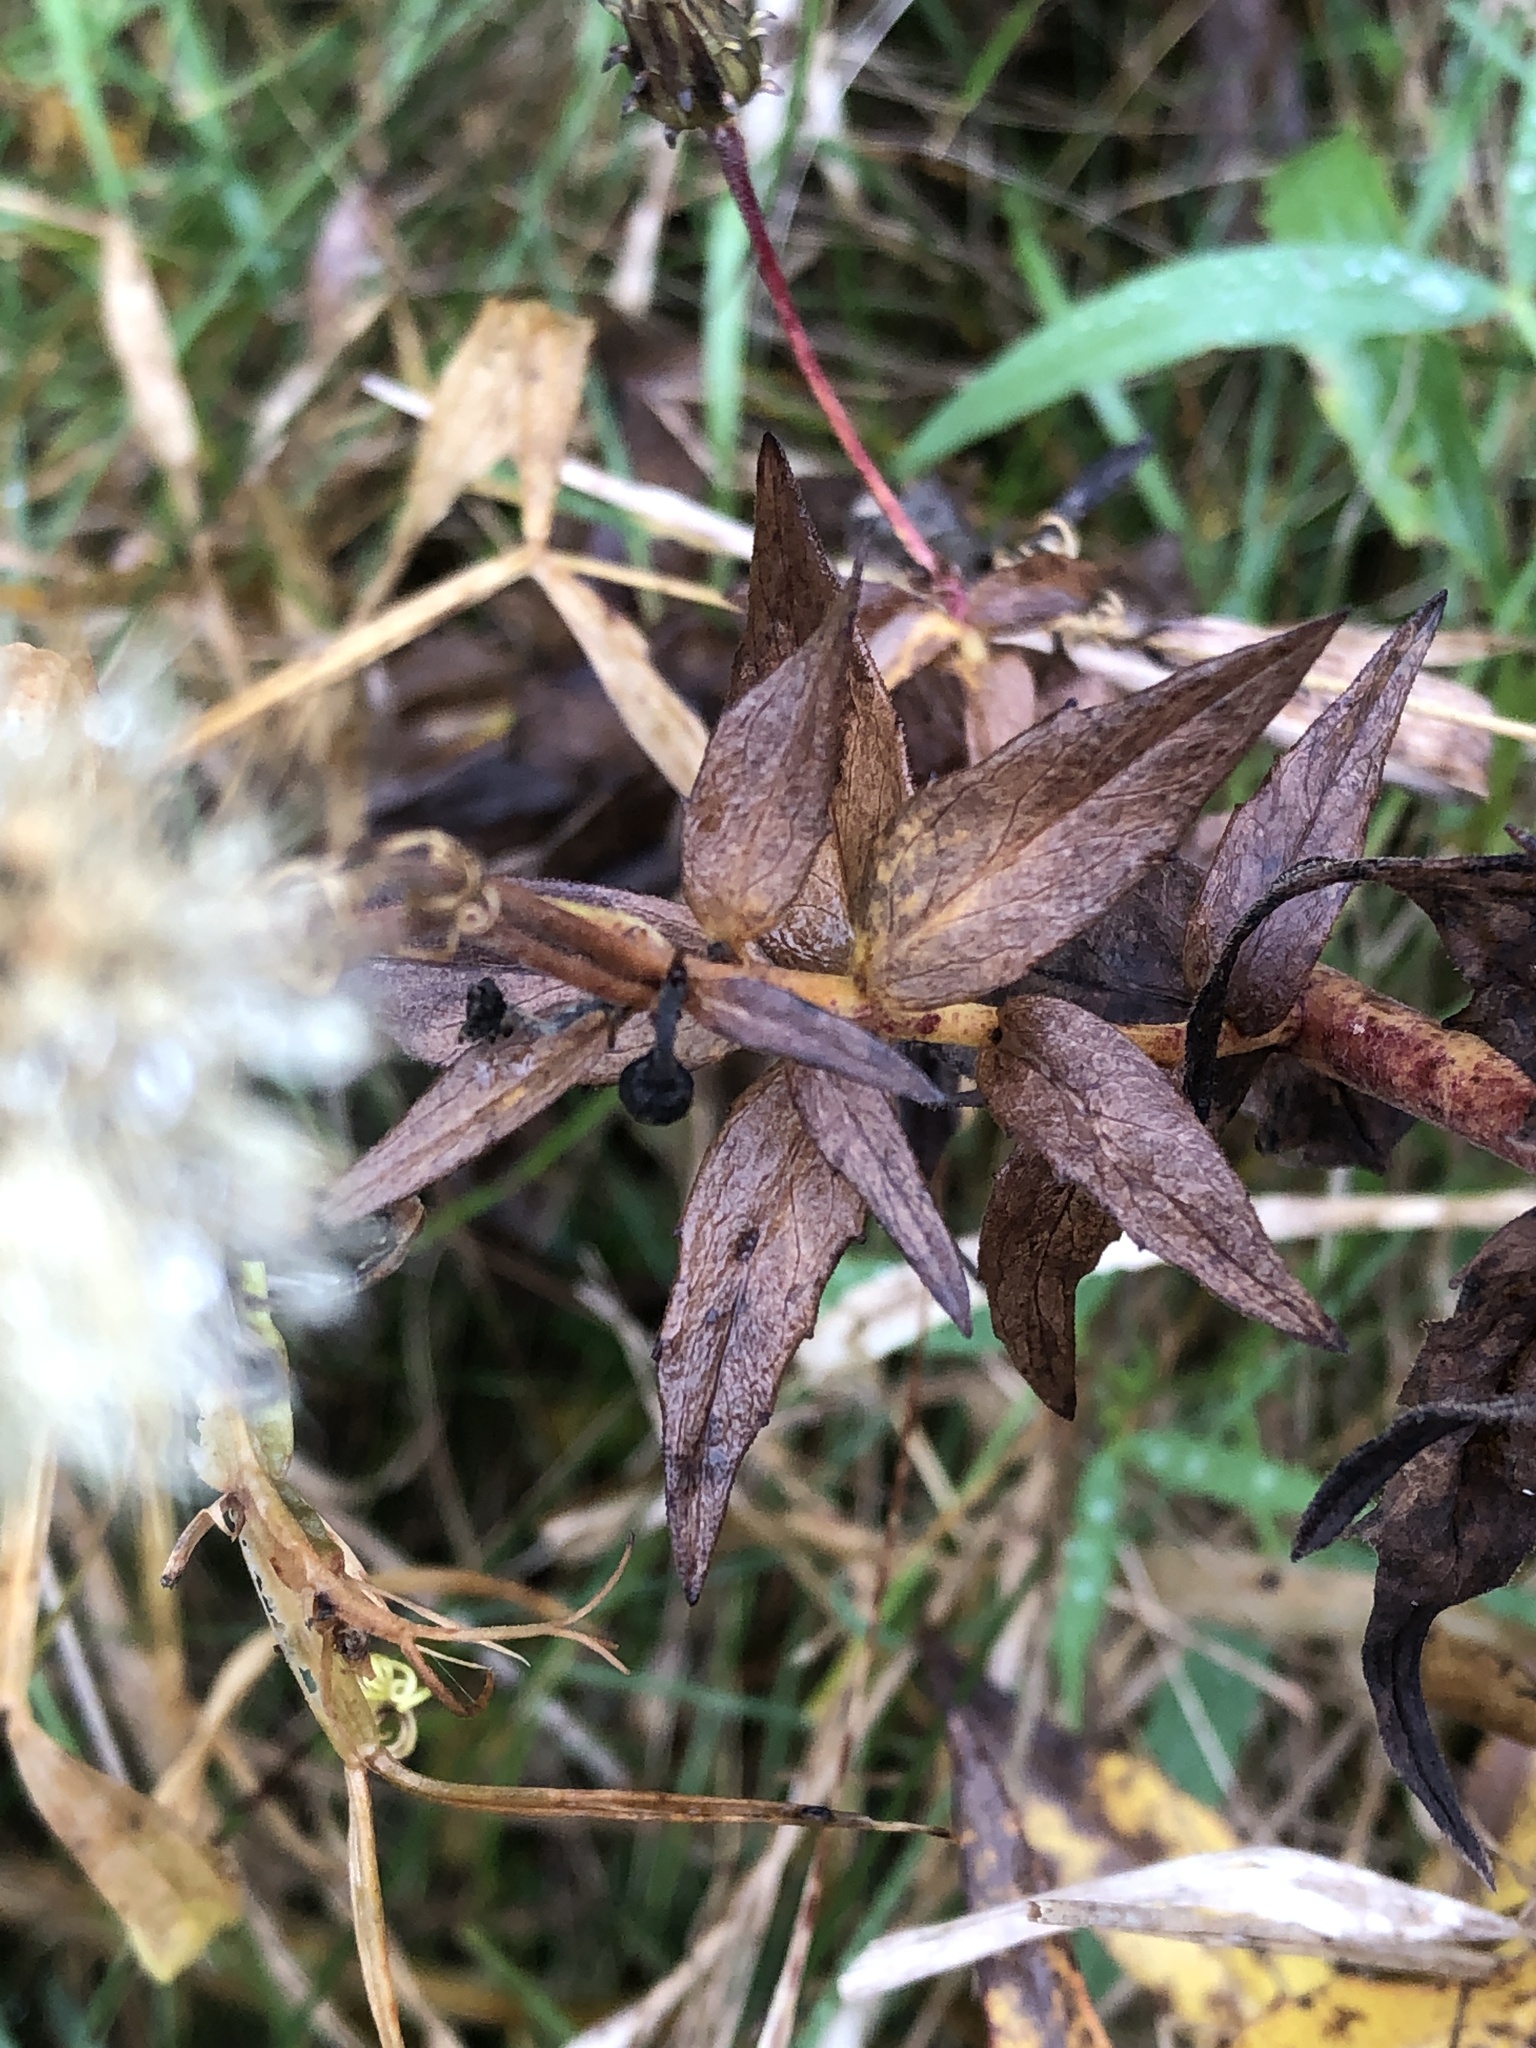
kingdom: Plantae
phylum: Tracheophyta
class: Magnoliopsida
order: Asterales
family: Asteraceae
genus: Hieracium
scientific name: Hieracium umbellatum
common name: Northern hawkweed
